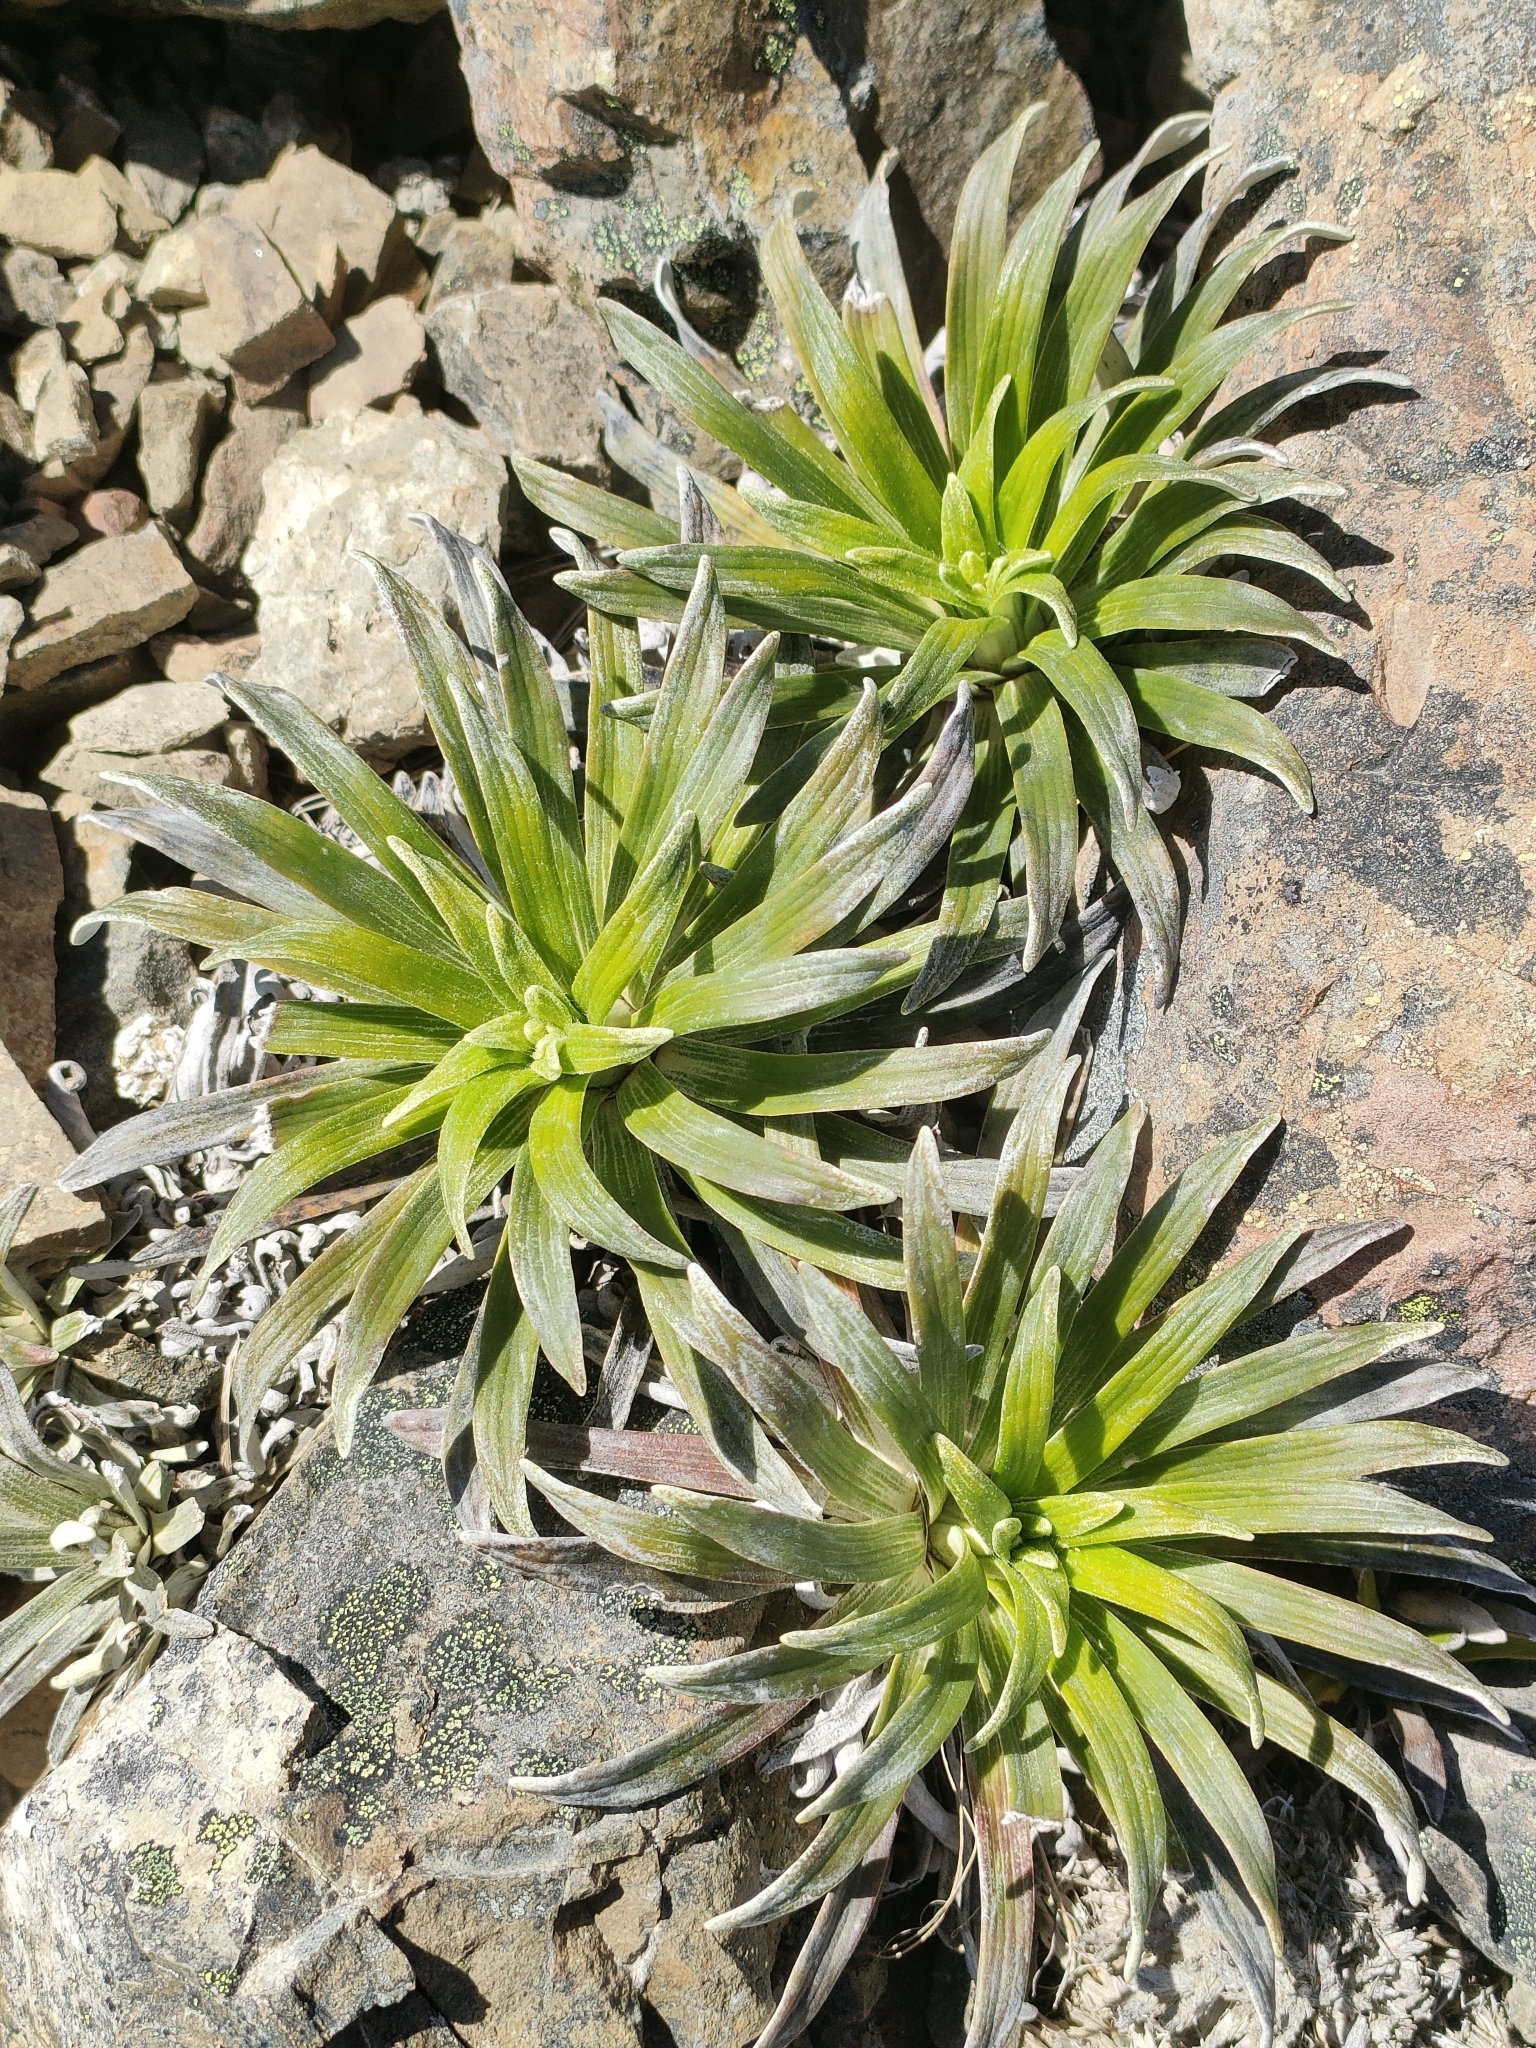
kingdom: Plantae
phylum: Tracheophyta
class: Magnoliopsida
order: Asterales
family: Asteraceae
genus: Celmisia
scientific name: Celmisia viscosa
